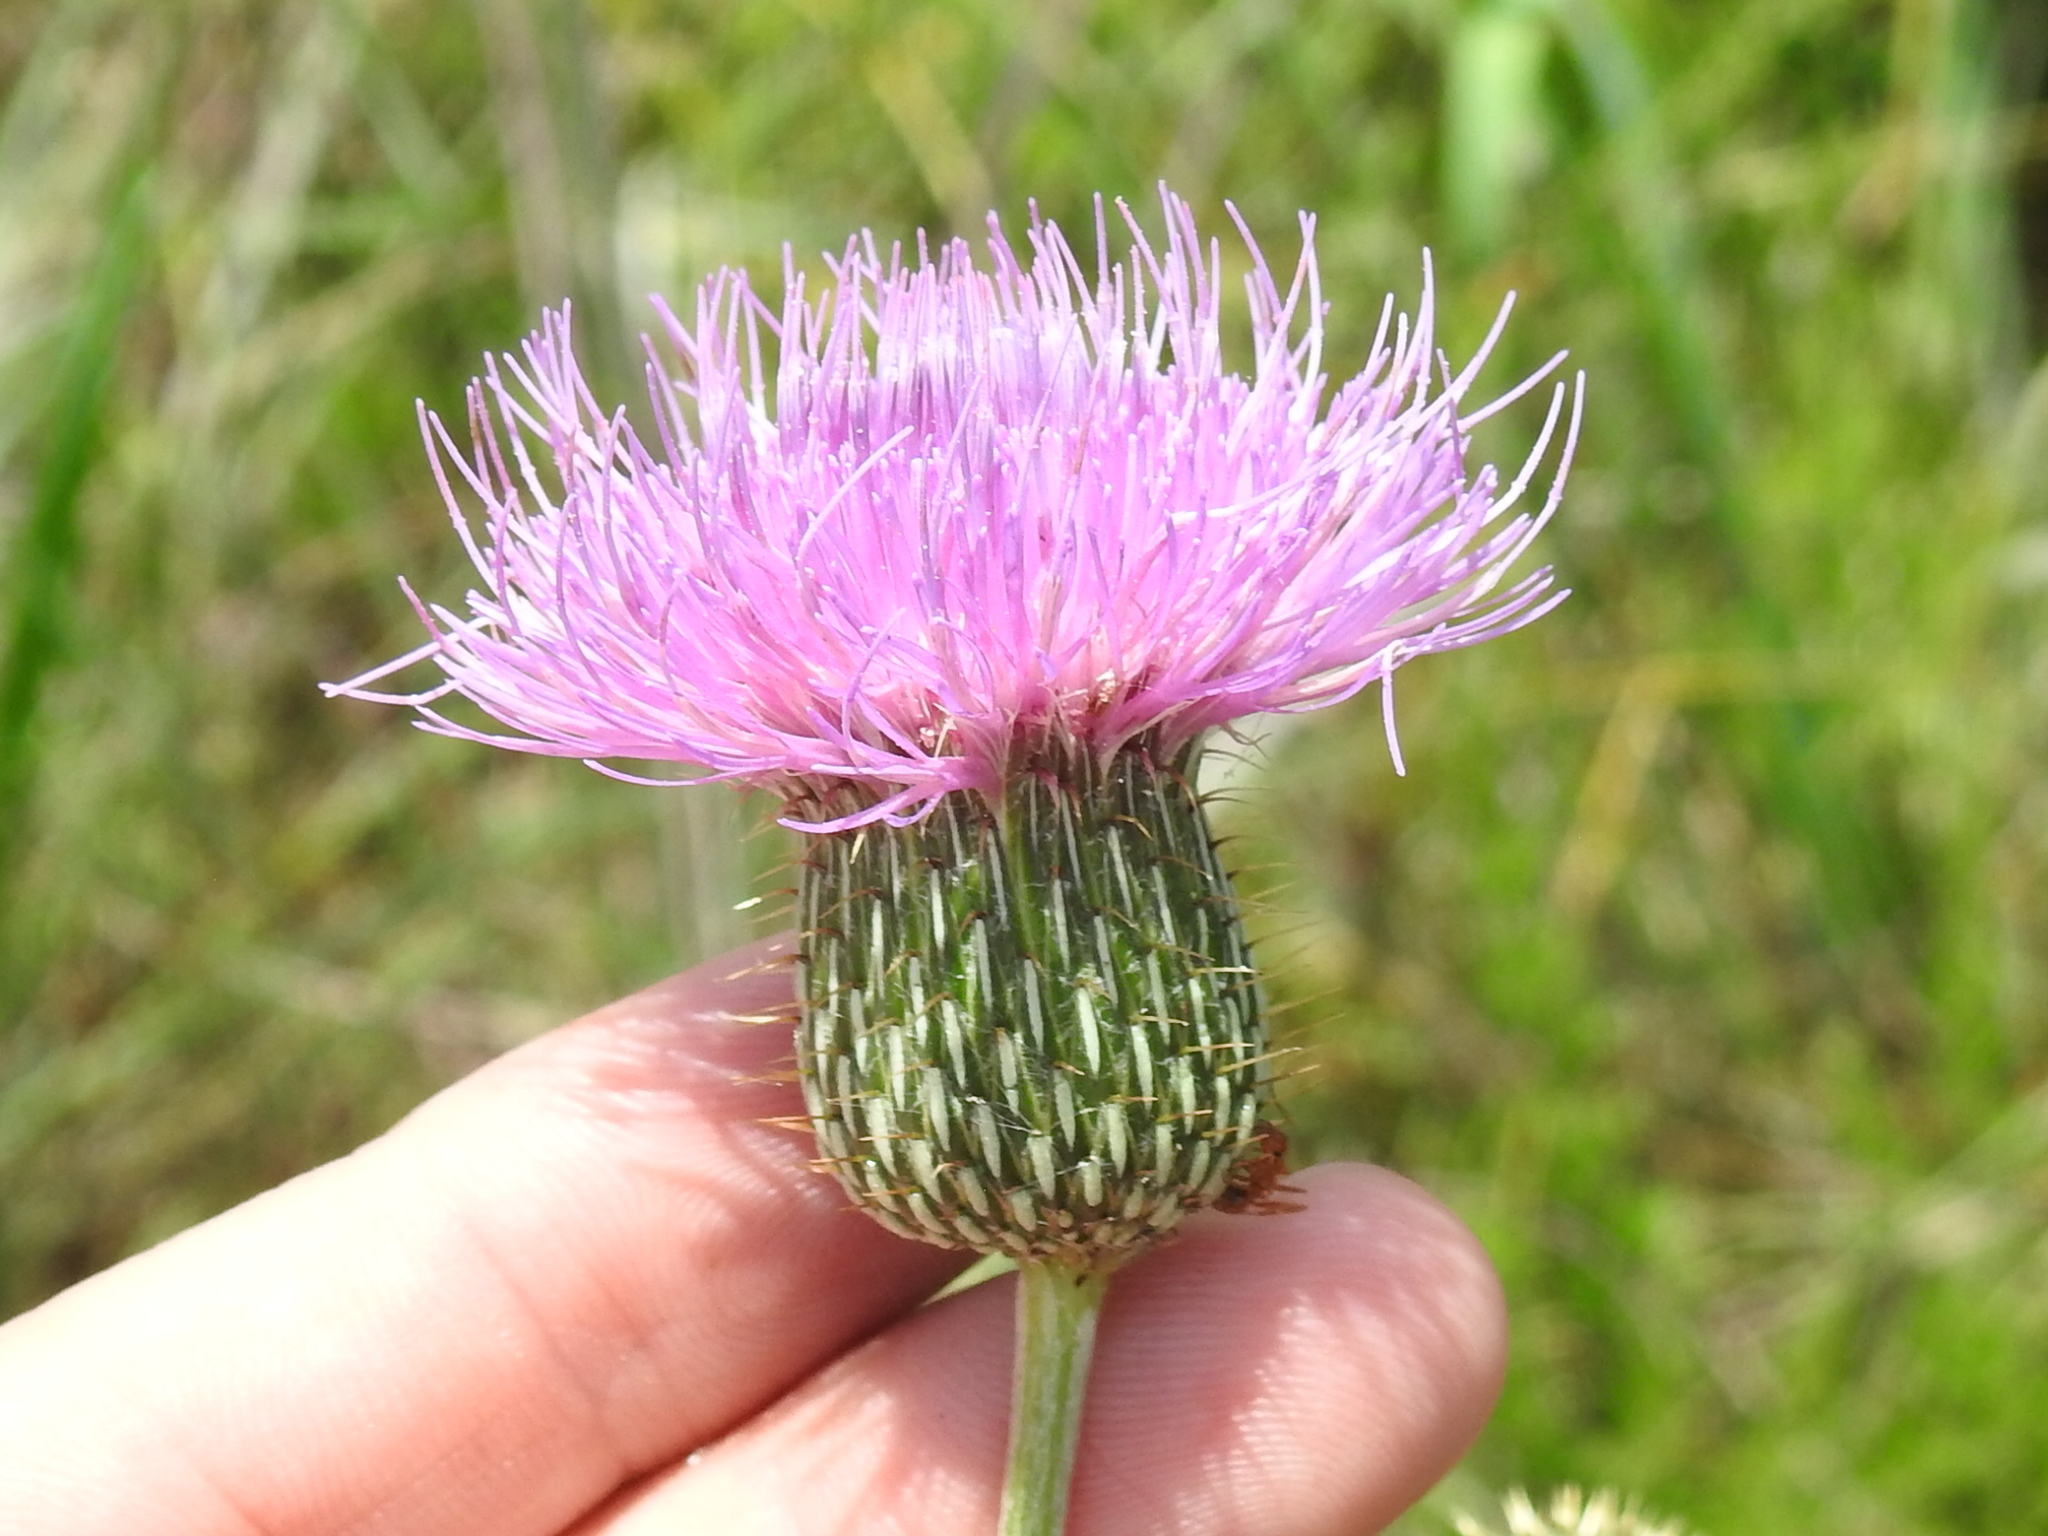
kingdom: Plantae
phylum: Tracheophyta
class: Magnoliopsida
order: Asterales
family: Asteraceae
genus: Cirsium
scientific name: Cirsium texanum
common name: Texas purple thistle
